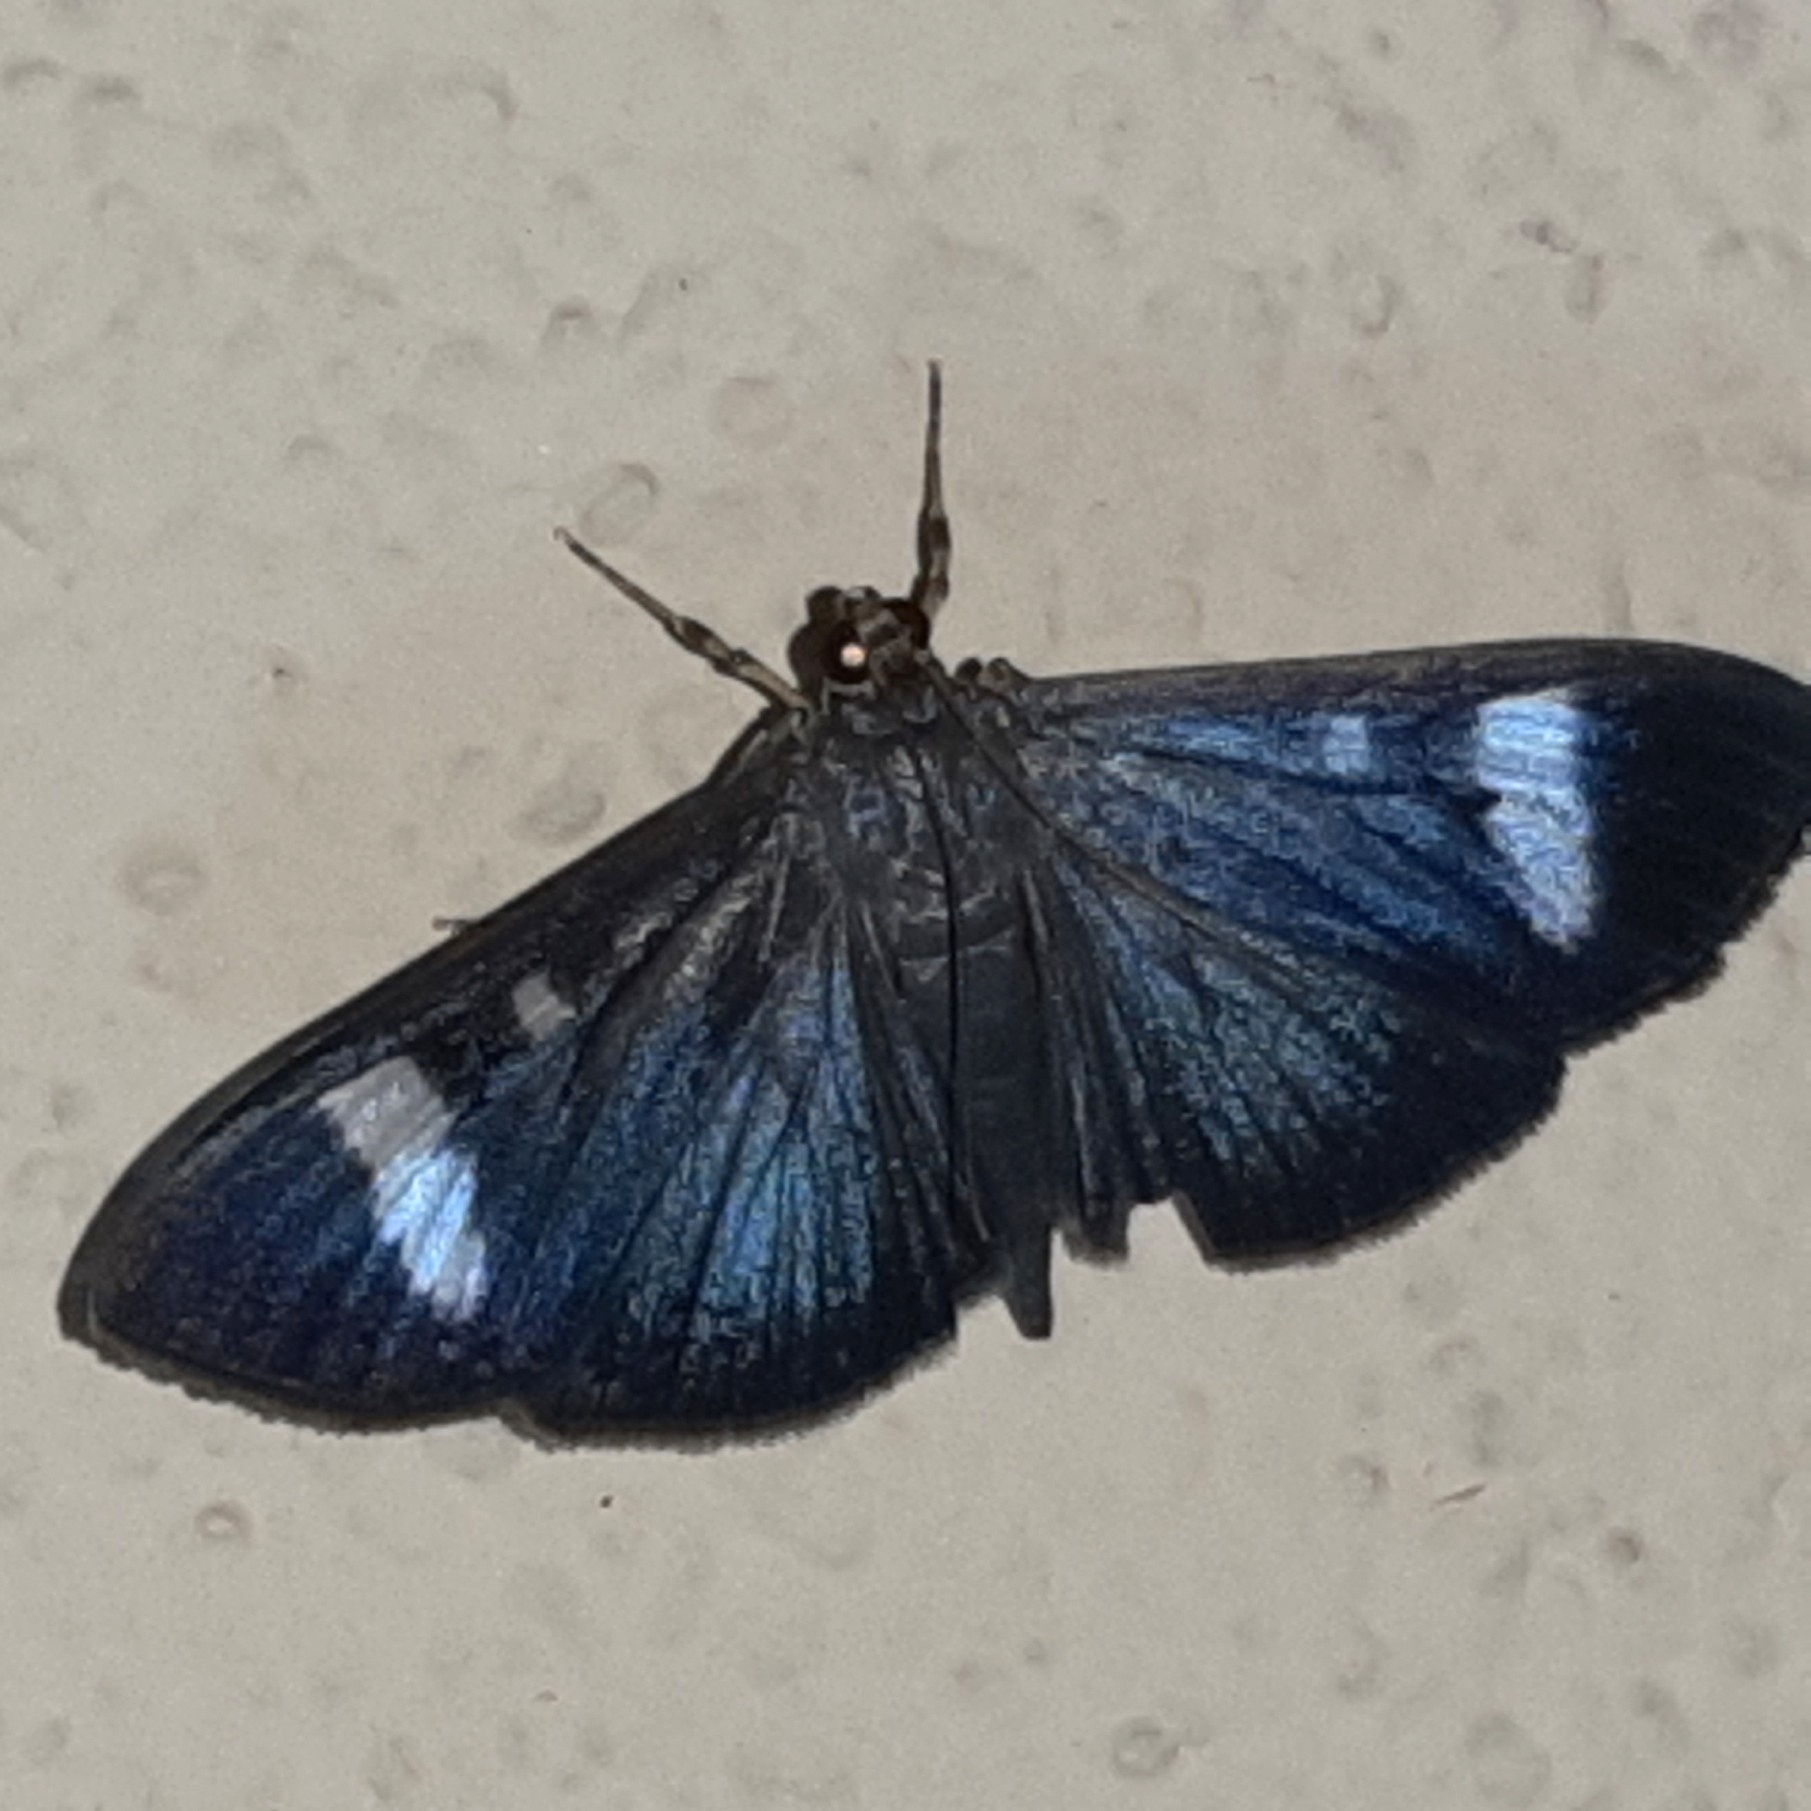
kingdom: Animalia
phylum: Arthropoda
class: Insecta
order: Lepidoptera
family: Crambidae
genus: Phostria
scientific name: Phostria Erilusa leucoplagialis
